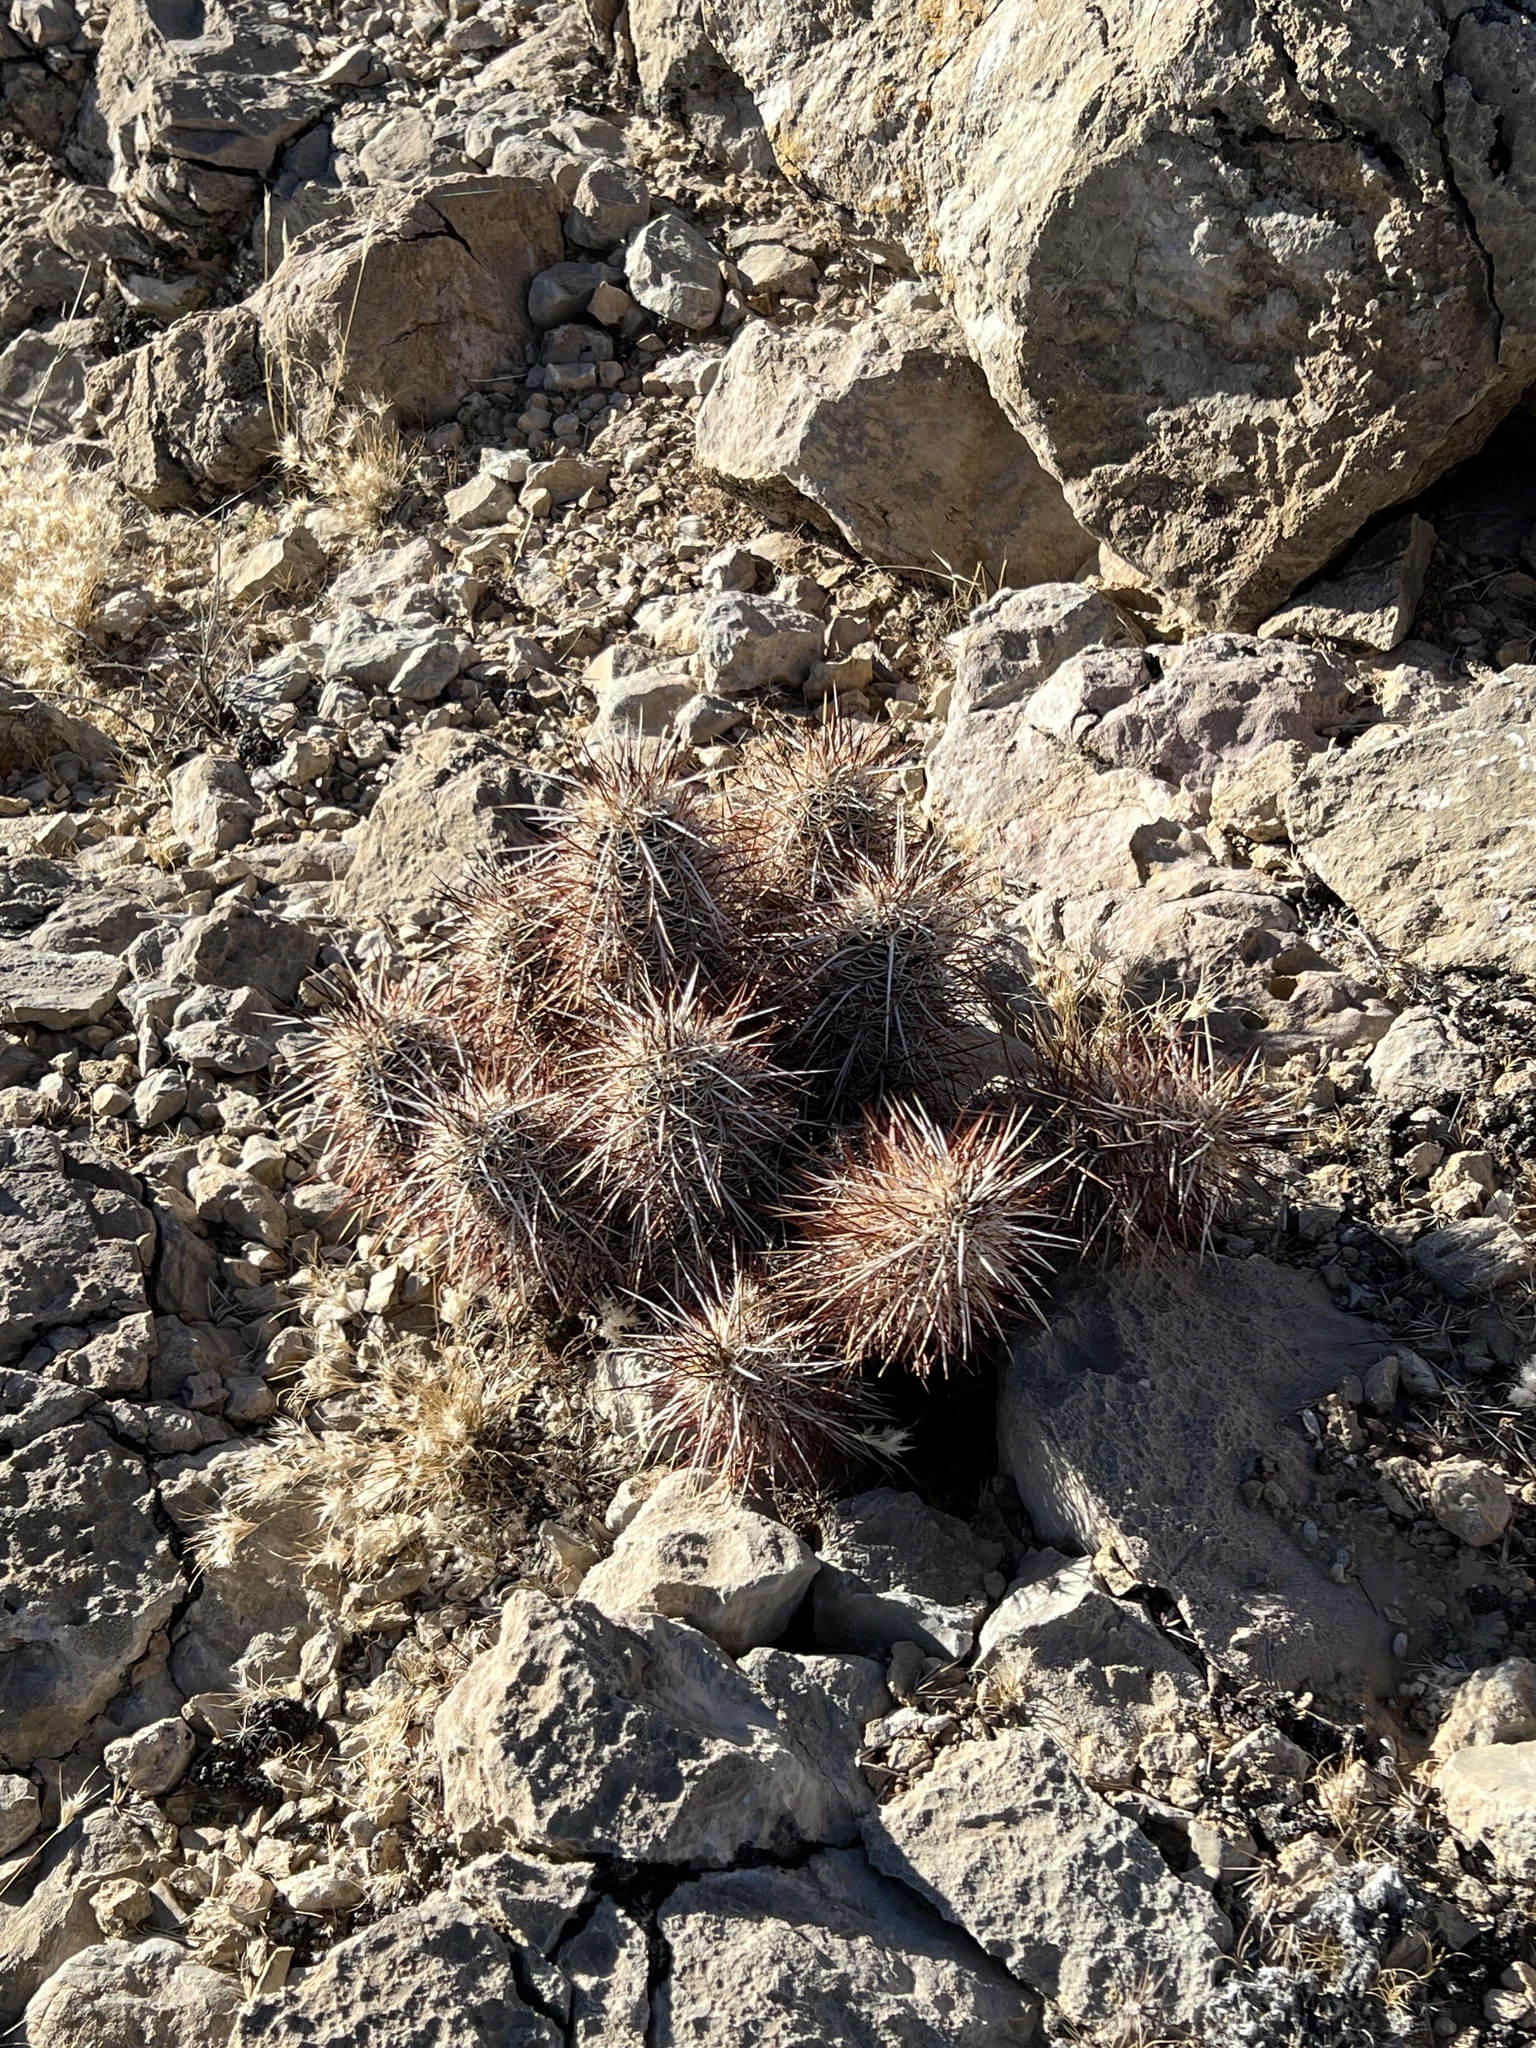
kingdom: Plantae
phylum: Tracheophyta
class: Magnoliopsida
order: Caryophyllales
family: Cactaceae
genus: Echinocereus
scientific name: Echinocereus engelmannii
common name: Engelmann's hedgehog cactus
